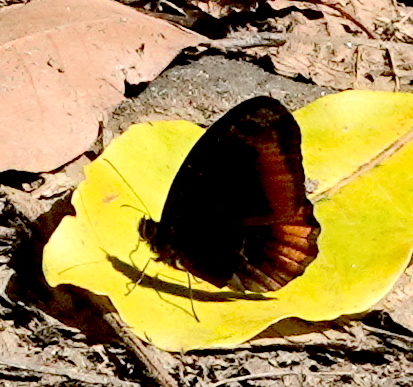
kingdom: Animalia
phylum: Arthropoda
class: Insecta
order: Lepidoptera
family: Nymphalidae
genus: Pedaliodes
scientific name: Pedaliodes
